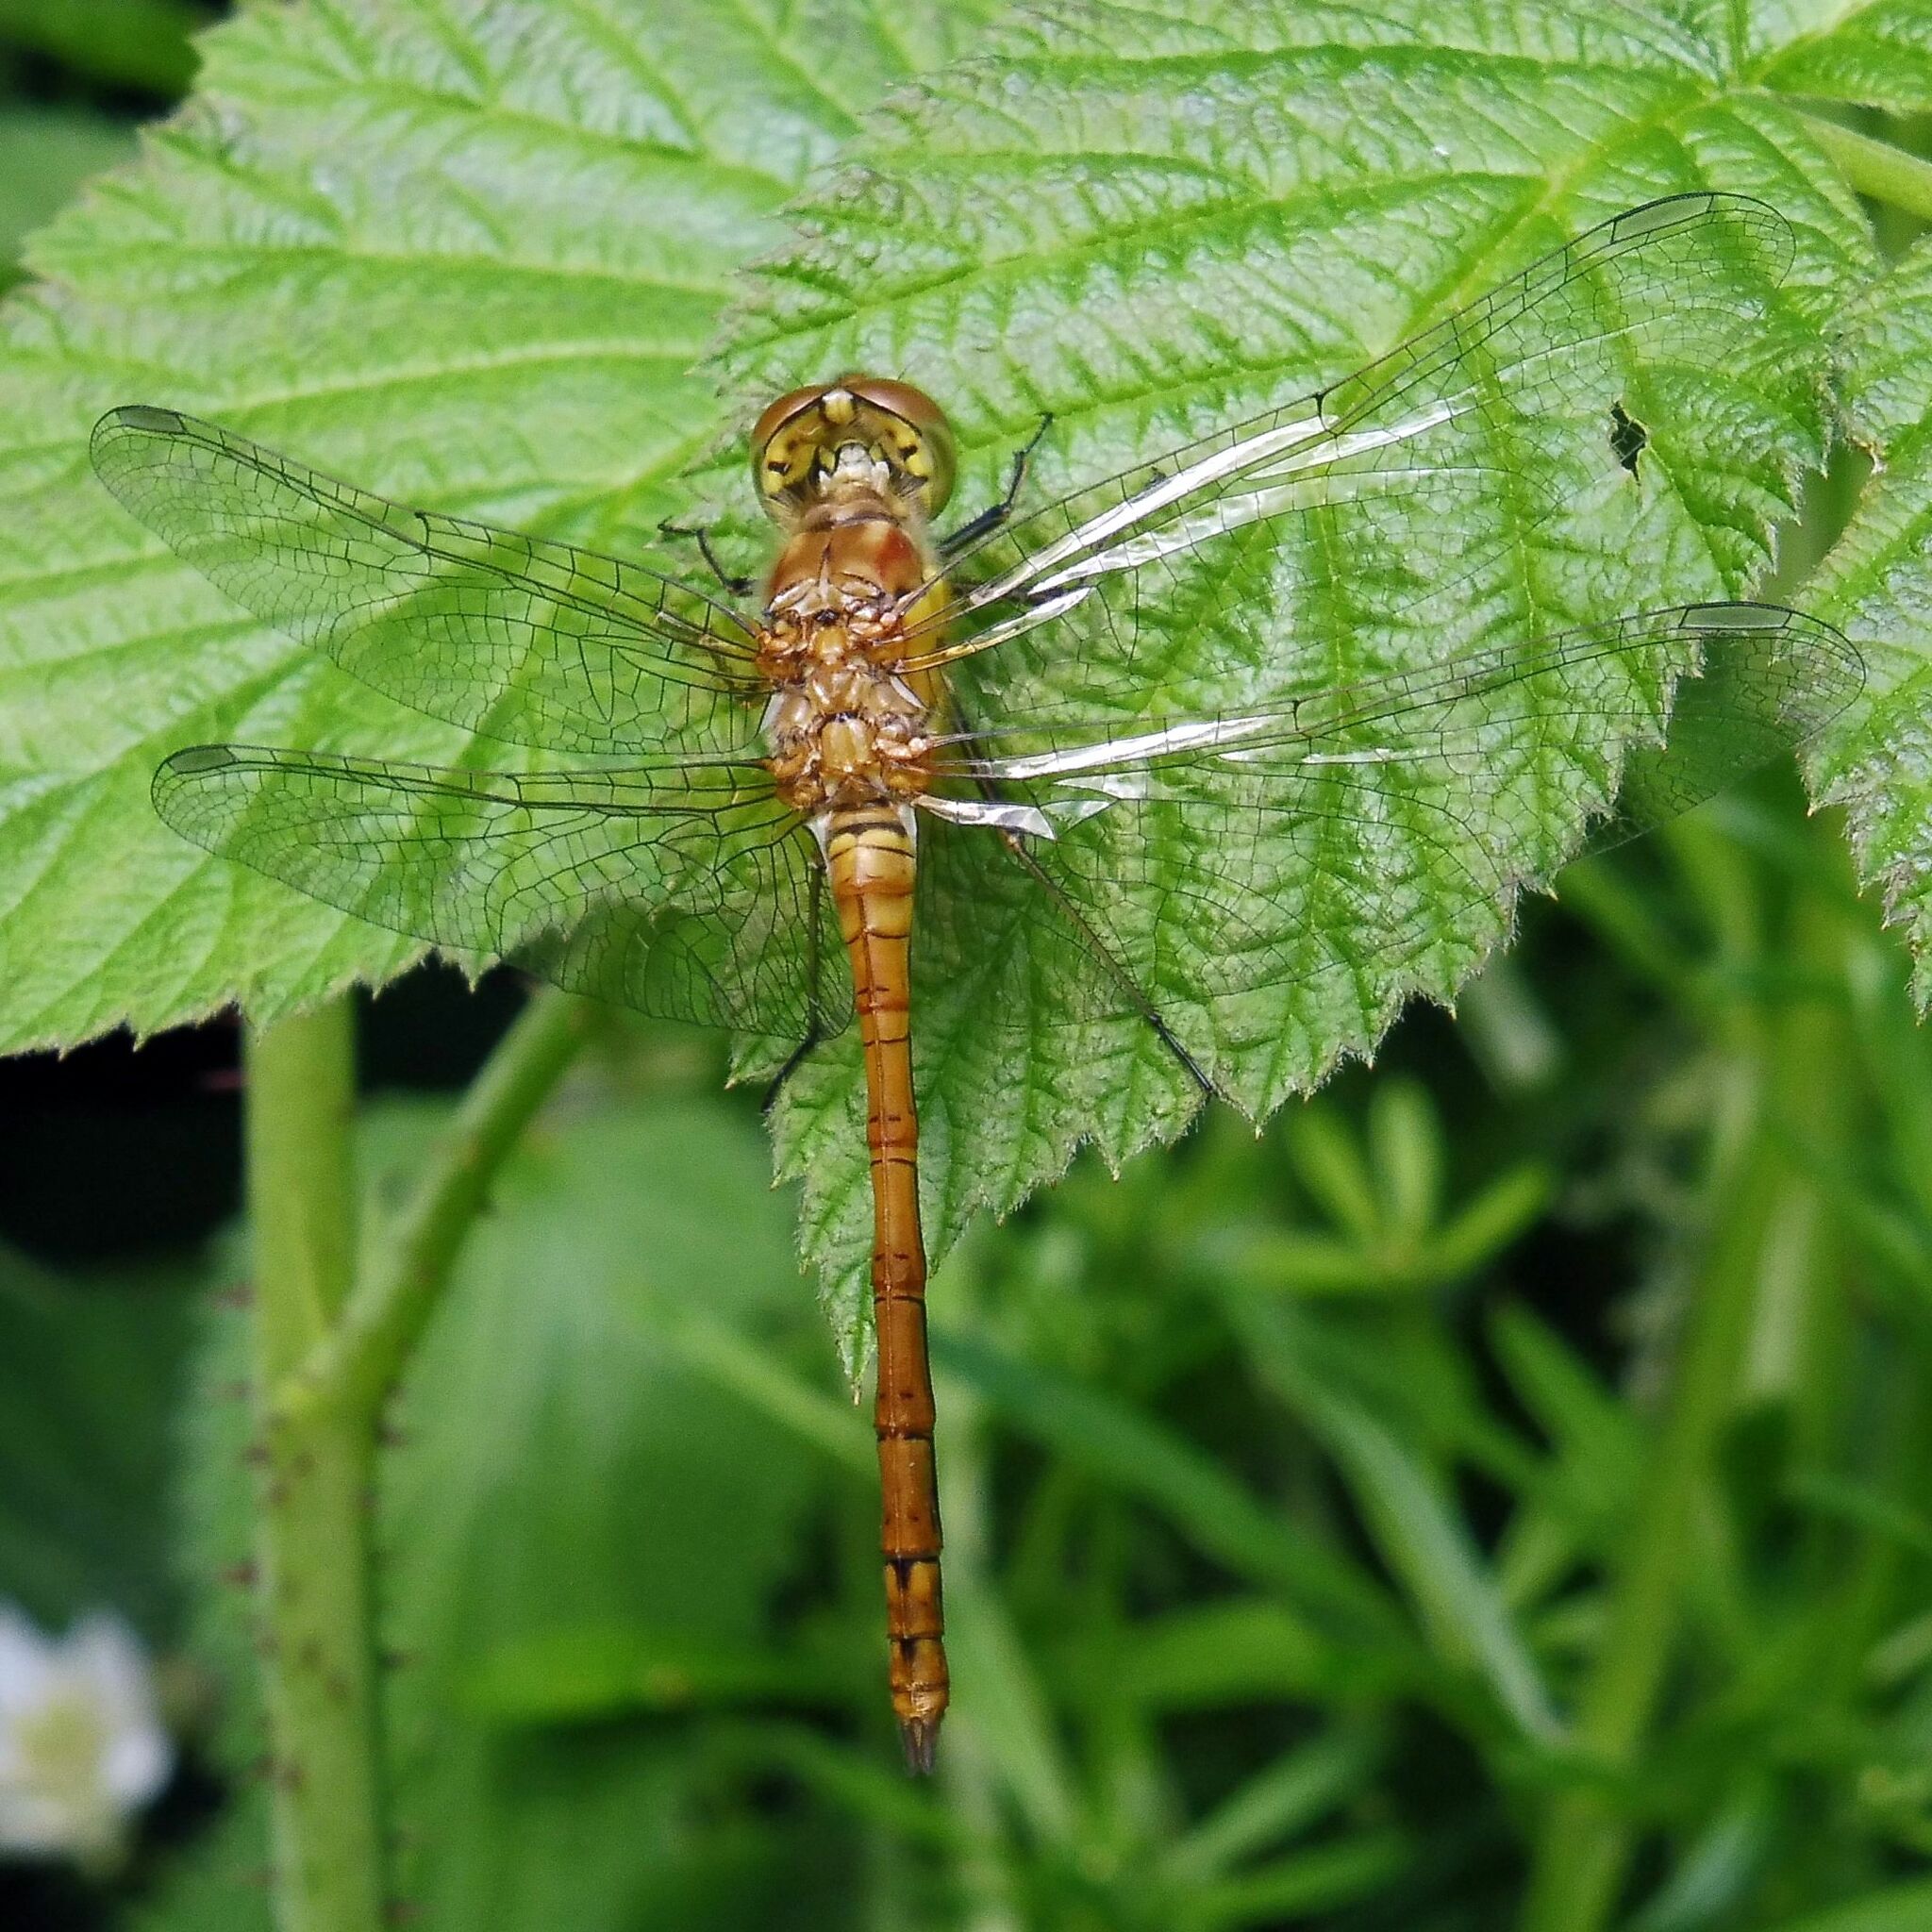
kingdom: Animalia
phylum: Arthropoda
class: Insecta
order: Odonata
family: Libellulidae
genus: Sympetrum
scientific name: Sympetrum striolatum
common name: Common darter
